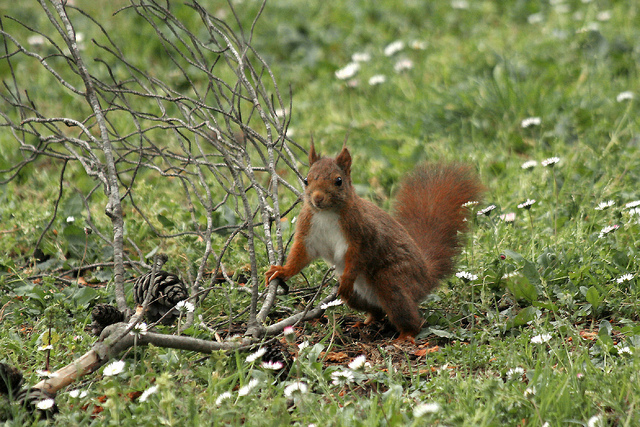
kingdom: Animalia
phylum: Chordata
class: Mammalia
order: Rodentia
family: Sciuridae
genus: Sciurus
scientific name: Sciurus vulgaris
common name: Eurasian red squirrel
